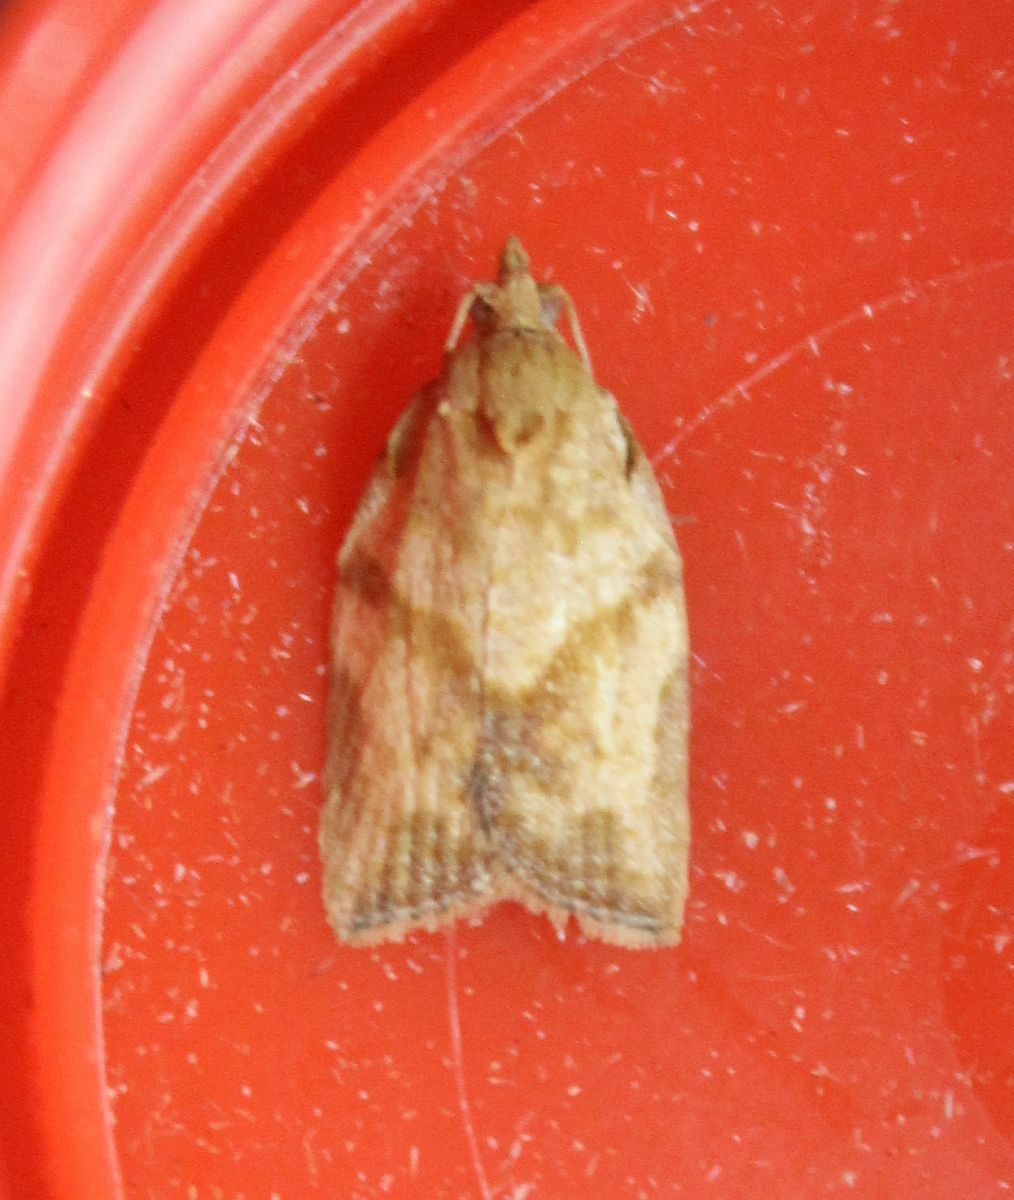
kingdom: Animalia
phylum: Arthropoda
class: Insecta
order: Lepidoptera
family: Tortricidae
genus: Epiphyas
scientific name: Epiphyas postvittana
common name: Light brown apple moth
